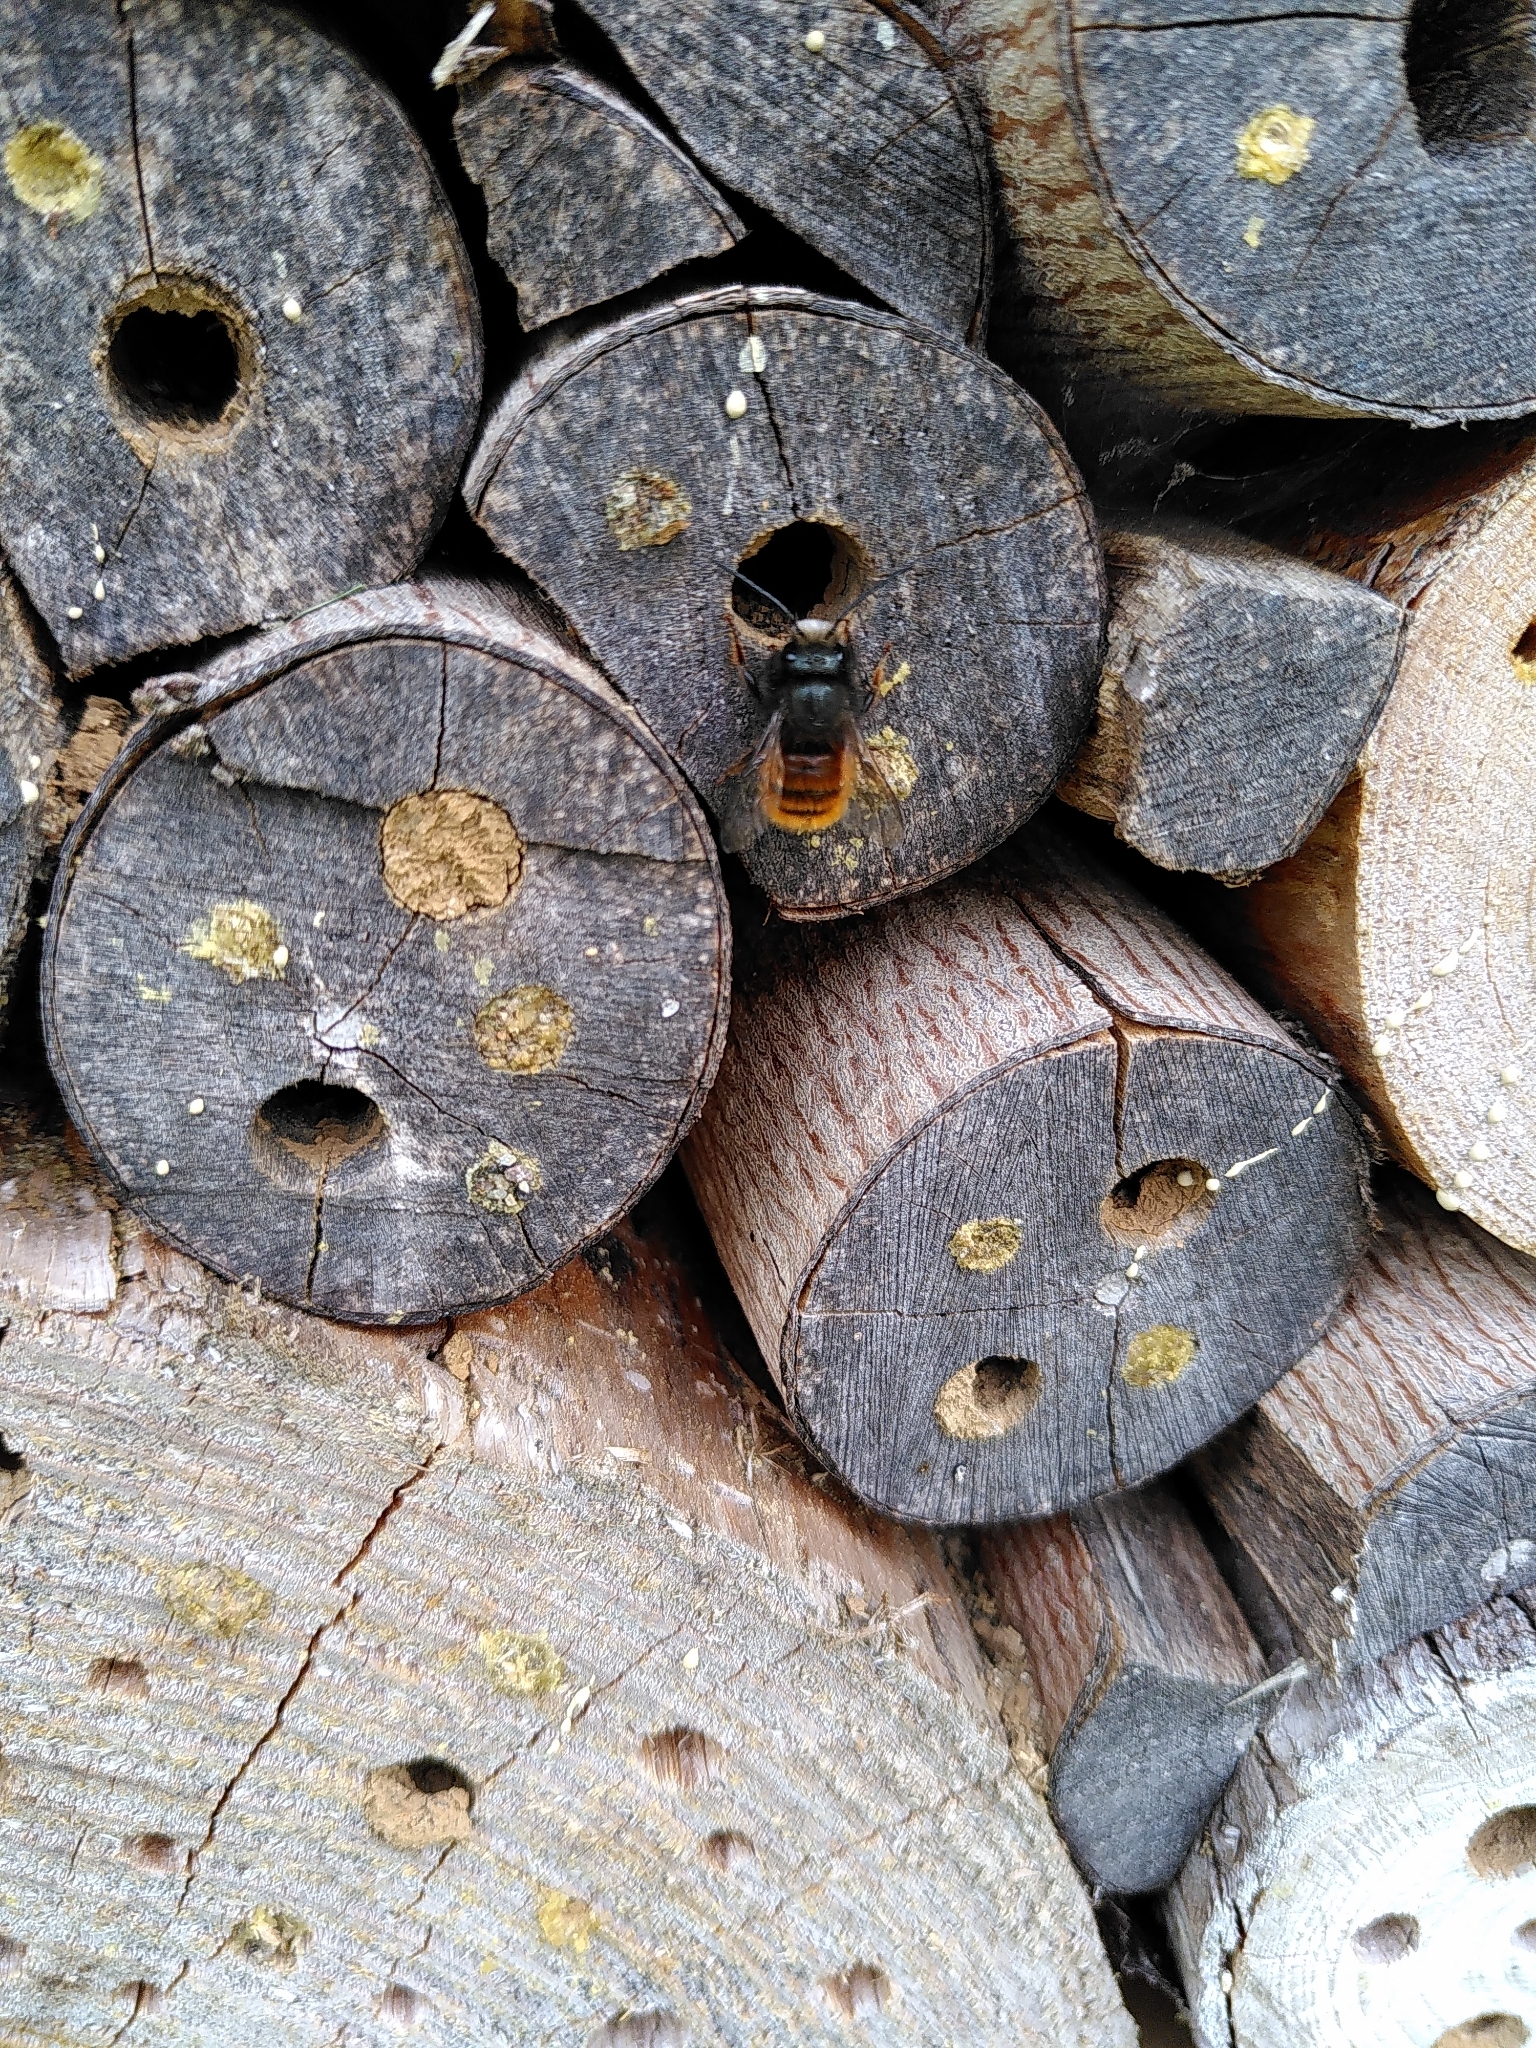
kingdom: Animalia
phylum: Arthropoda
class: Insecta
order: Hymenoptera
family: Megachilidae
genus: Osmia
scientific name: Osmia cornuta
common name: Mason bee
